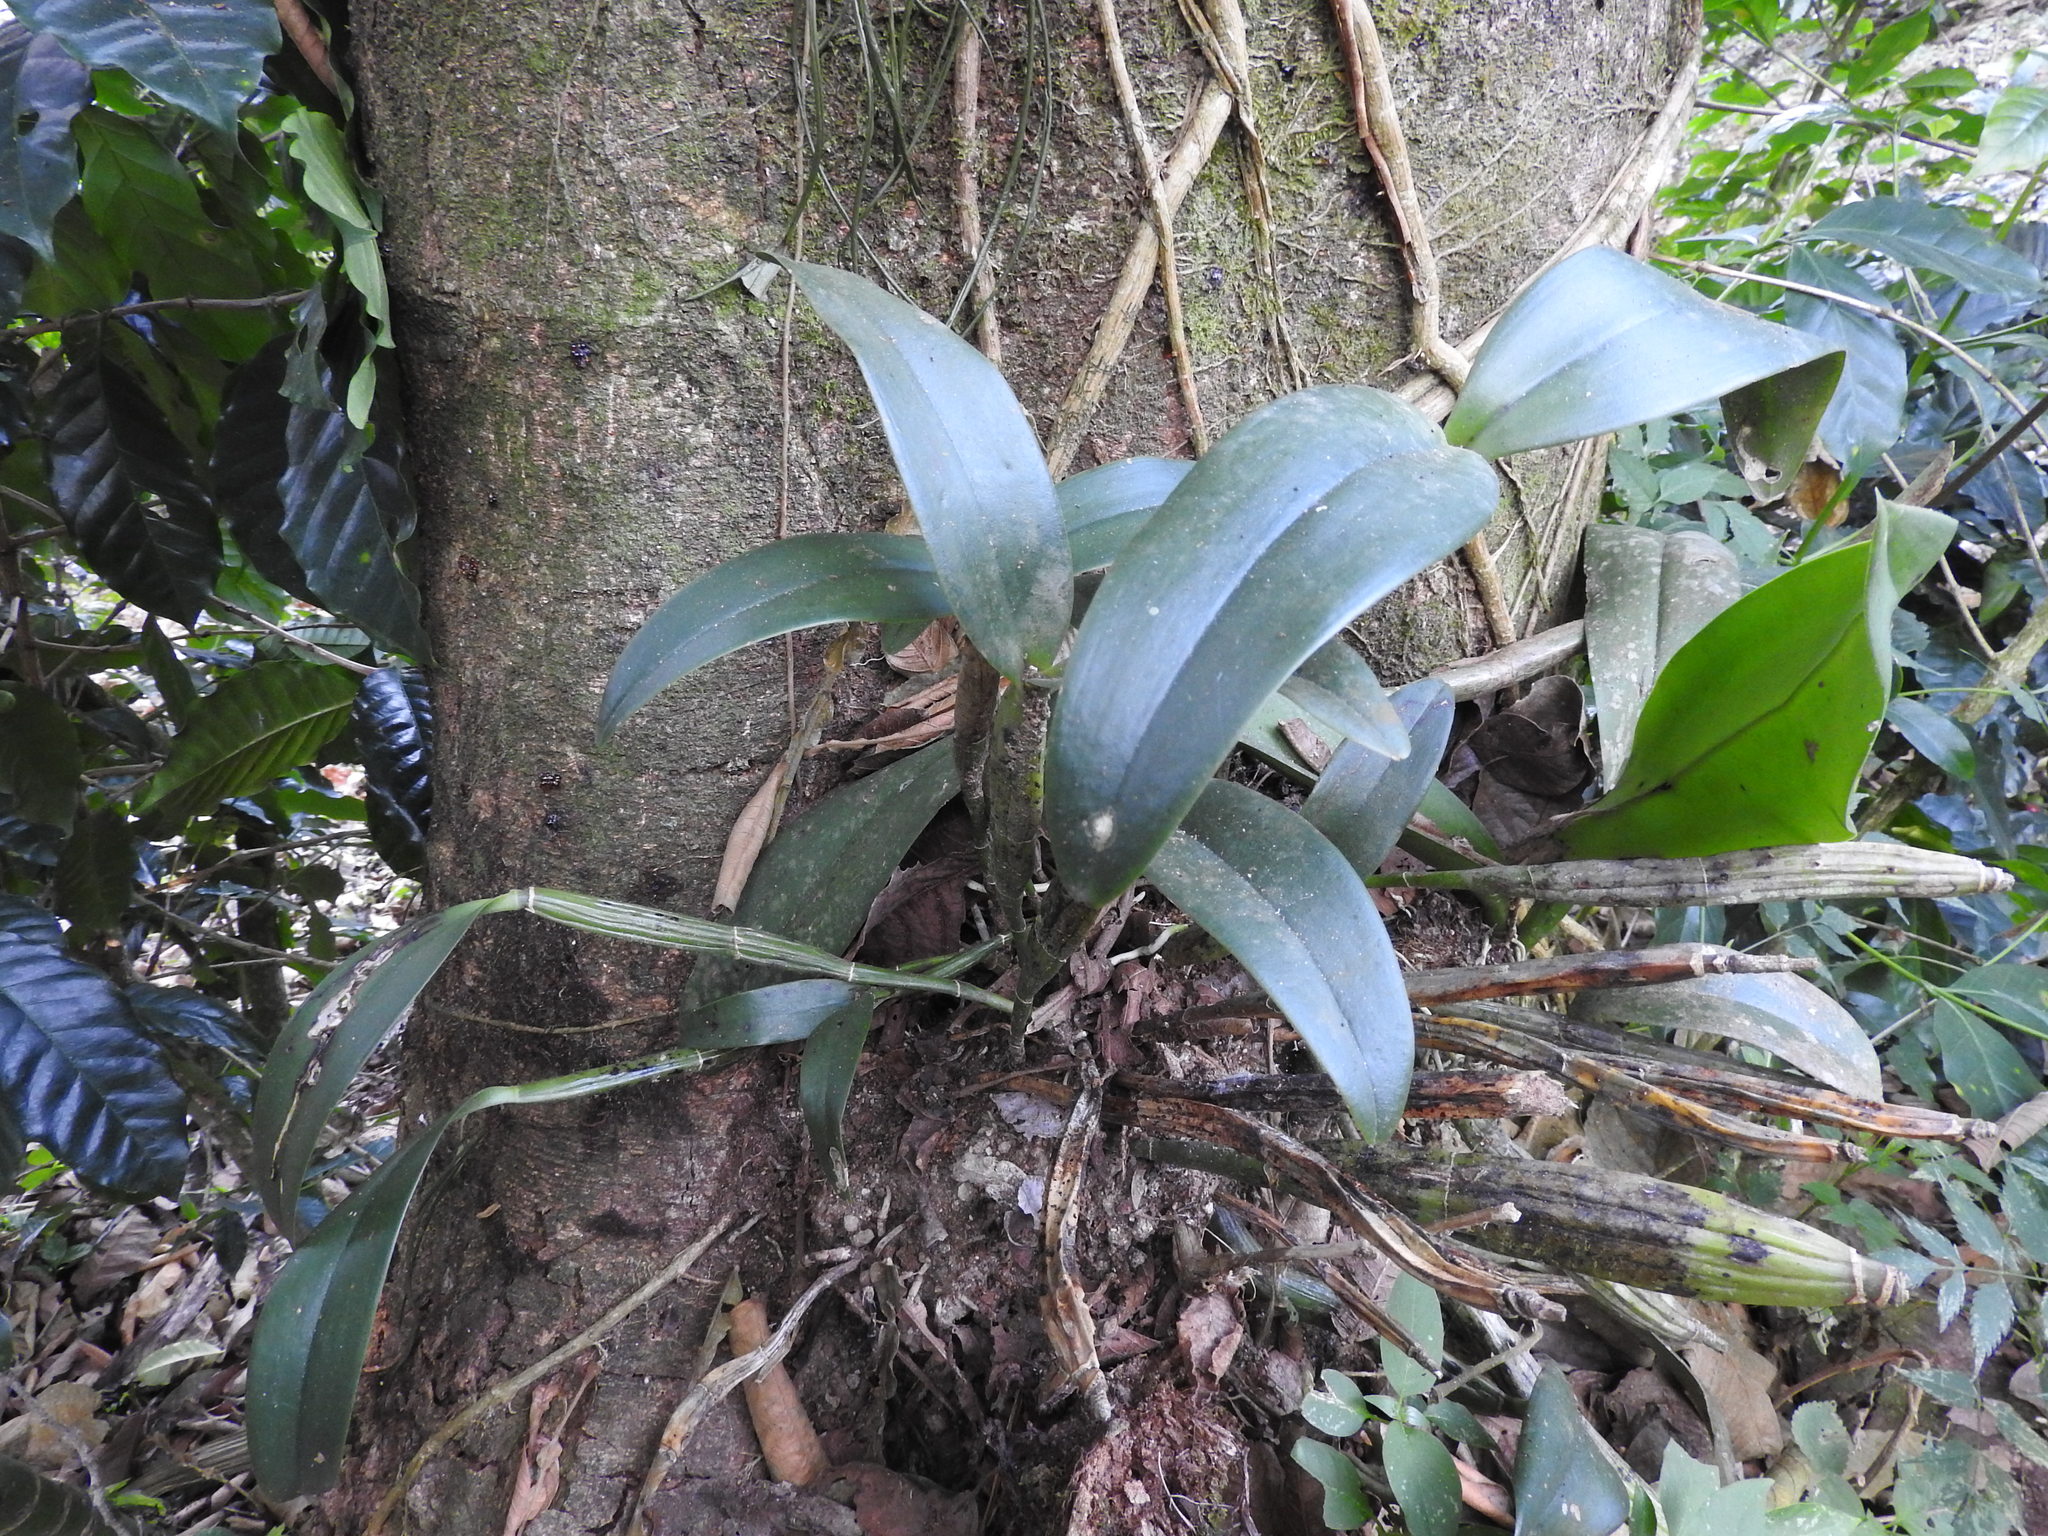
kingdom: Plantae
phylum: Tracheophyta
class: Liliopsida
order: Asparagales
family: Orchidaceae
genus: Guarianthe
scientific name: Guarianthe aurantiaca
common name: Orange cattleya
